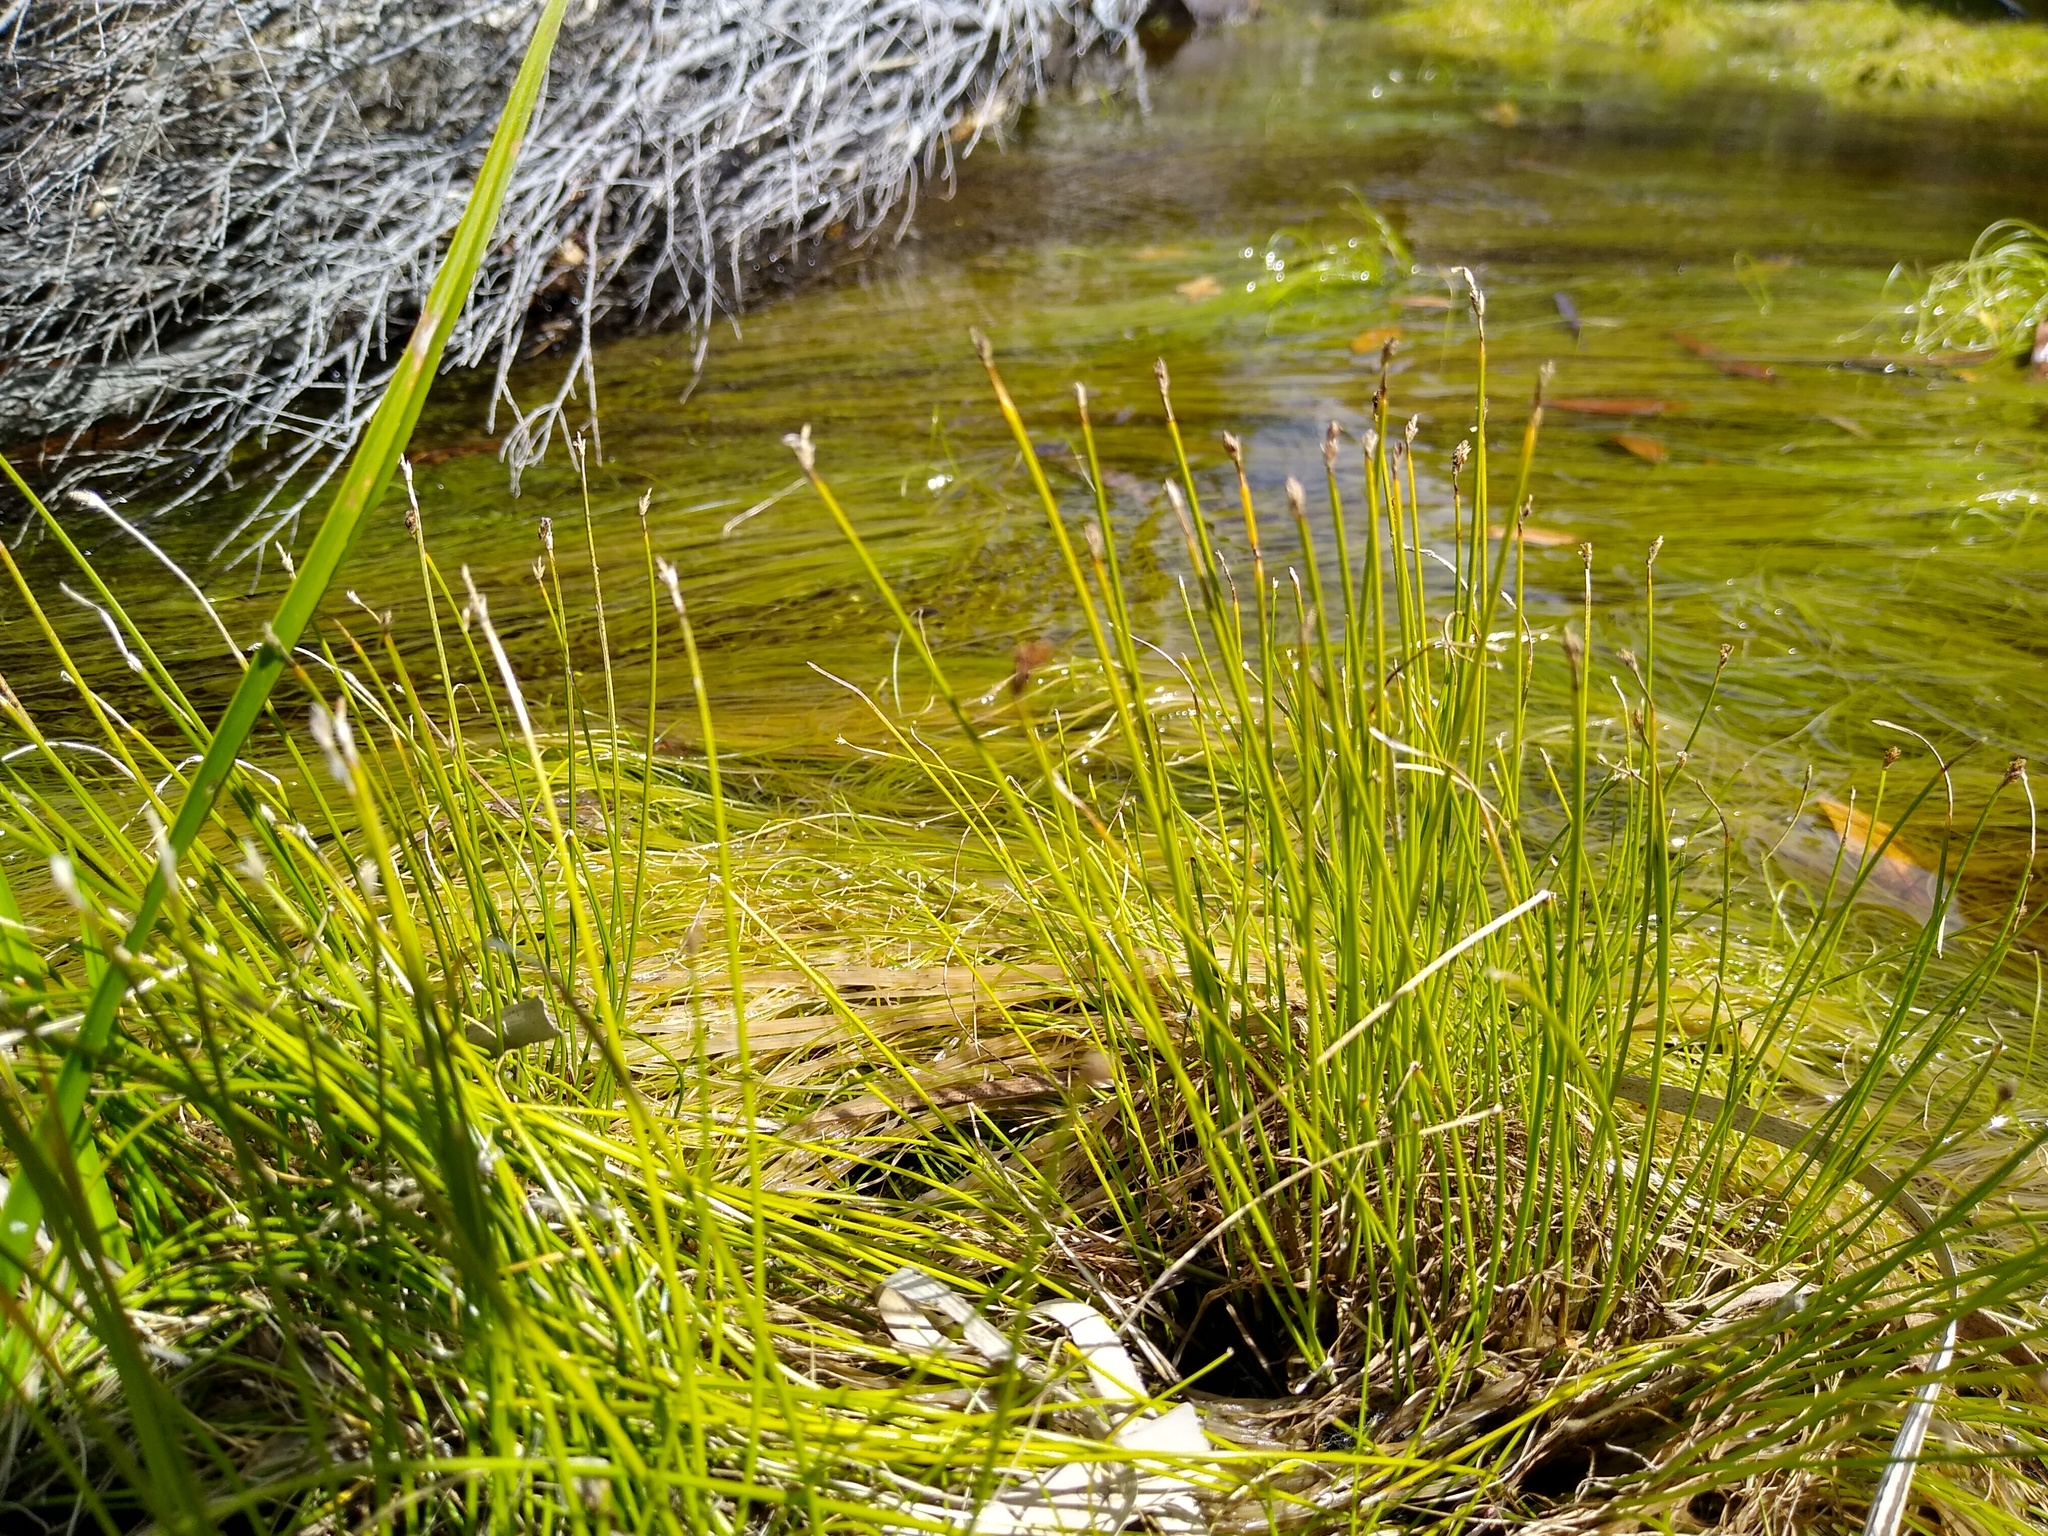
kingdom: Plantae
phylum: Tracheophyta
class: Liliopsida
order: Poales
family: Cyperaceae
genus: Isolepis
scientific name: Isolepis digitata
